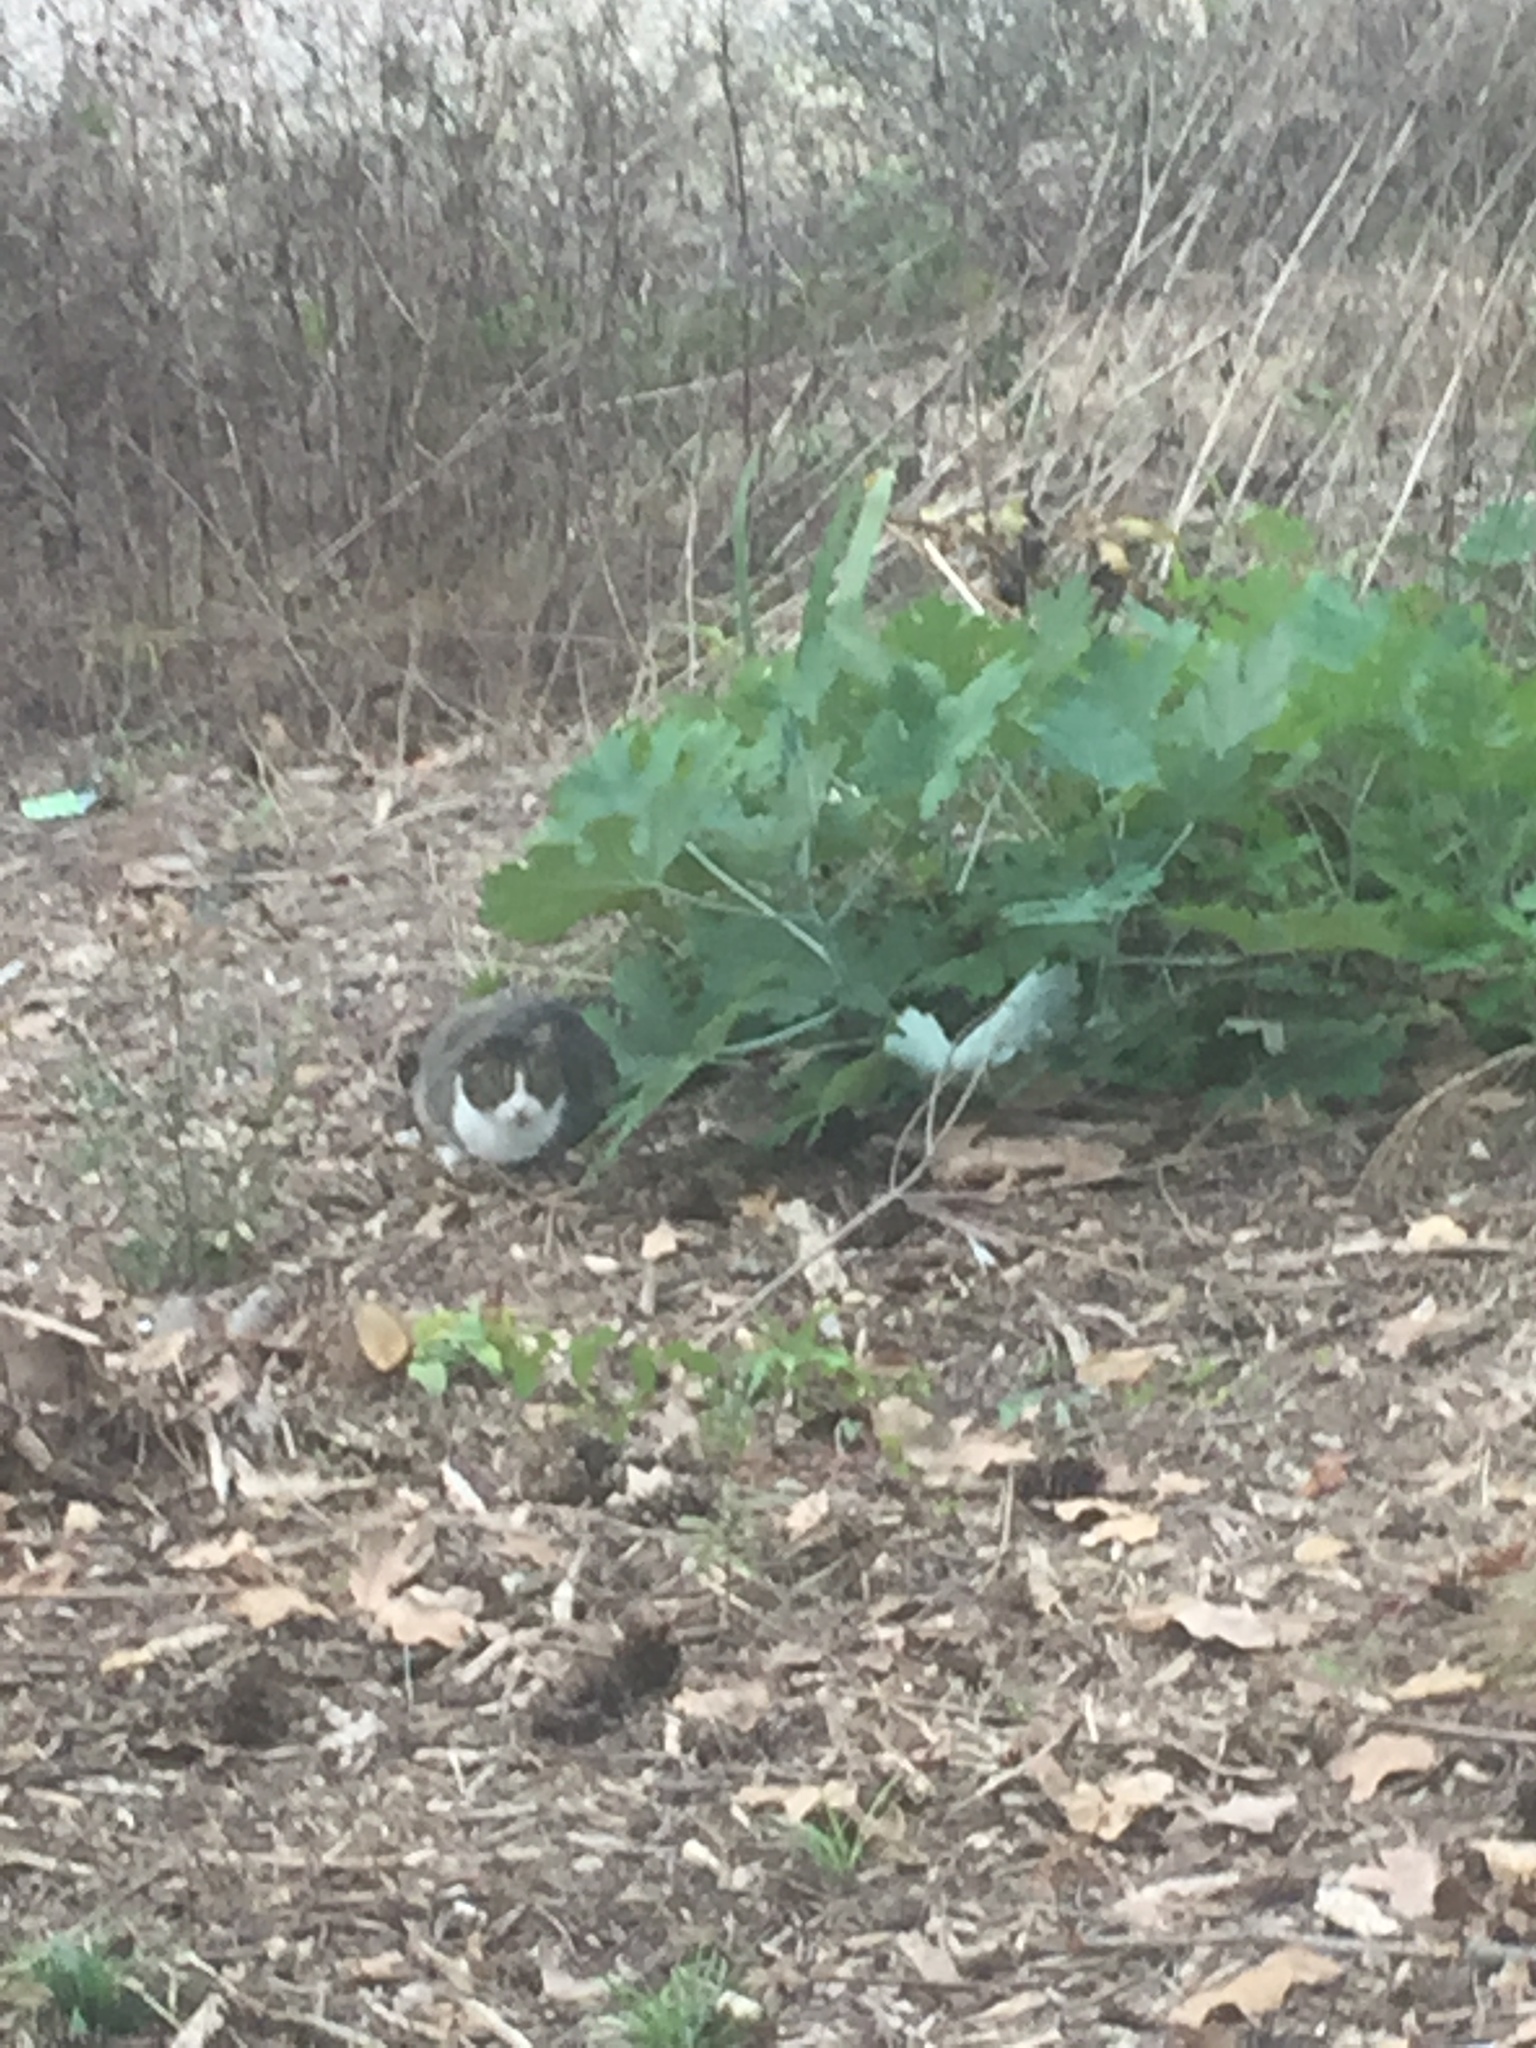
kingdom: Animalia
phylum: Chordata
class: Mammalia
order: Carnivora
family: Felidae
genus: Felis
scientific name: Felis catus
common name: Domestic cat
